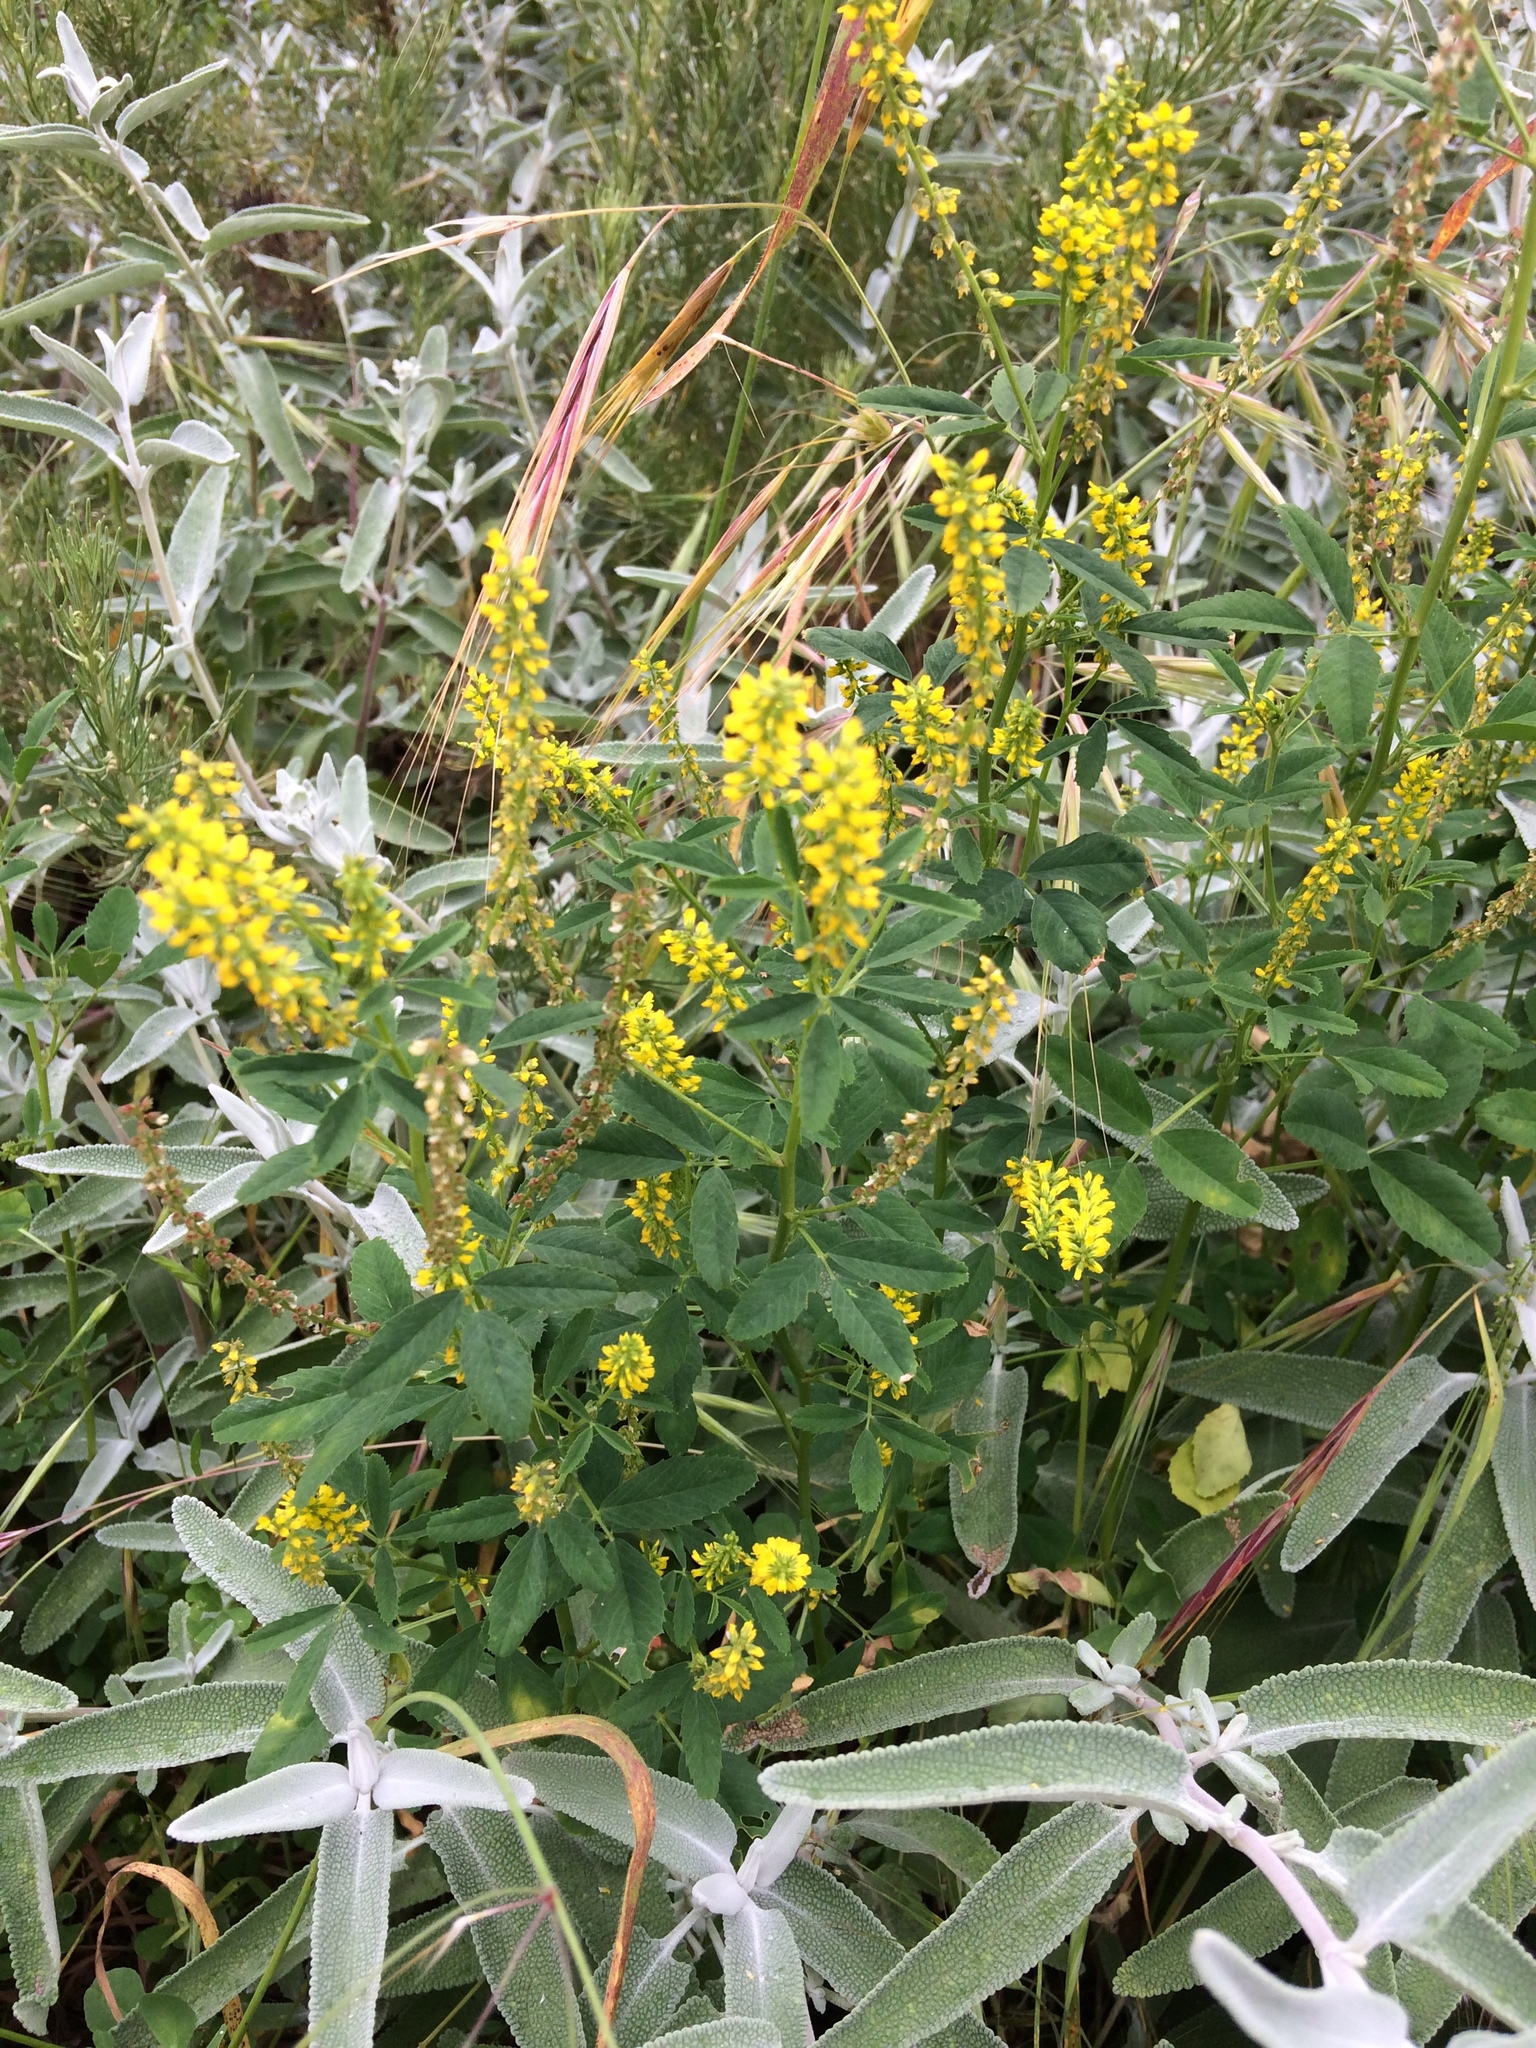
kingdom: Plantae
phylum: Tracheophyta
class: Magnoliopsida
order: Fabales
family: Fabaceae
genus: Melilotus
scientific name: Melilotus indicus
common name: Small melilot
